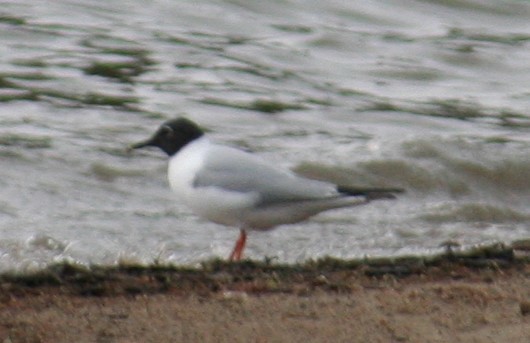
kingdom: Animalia
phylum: Chordata
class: Aves
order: Charadriiformes
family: Laridae
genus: Chroicocephalus
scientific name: Chroicocephalus philadelphia
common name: Bonaparte's gull
